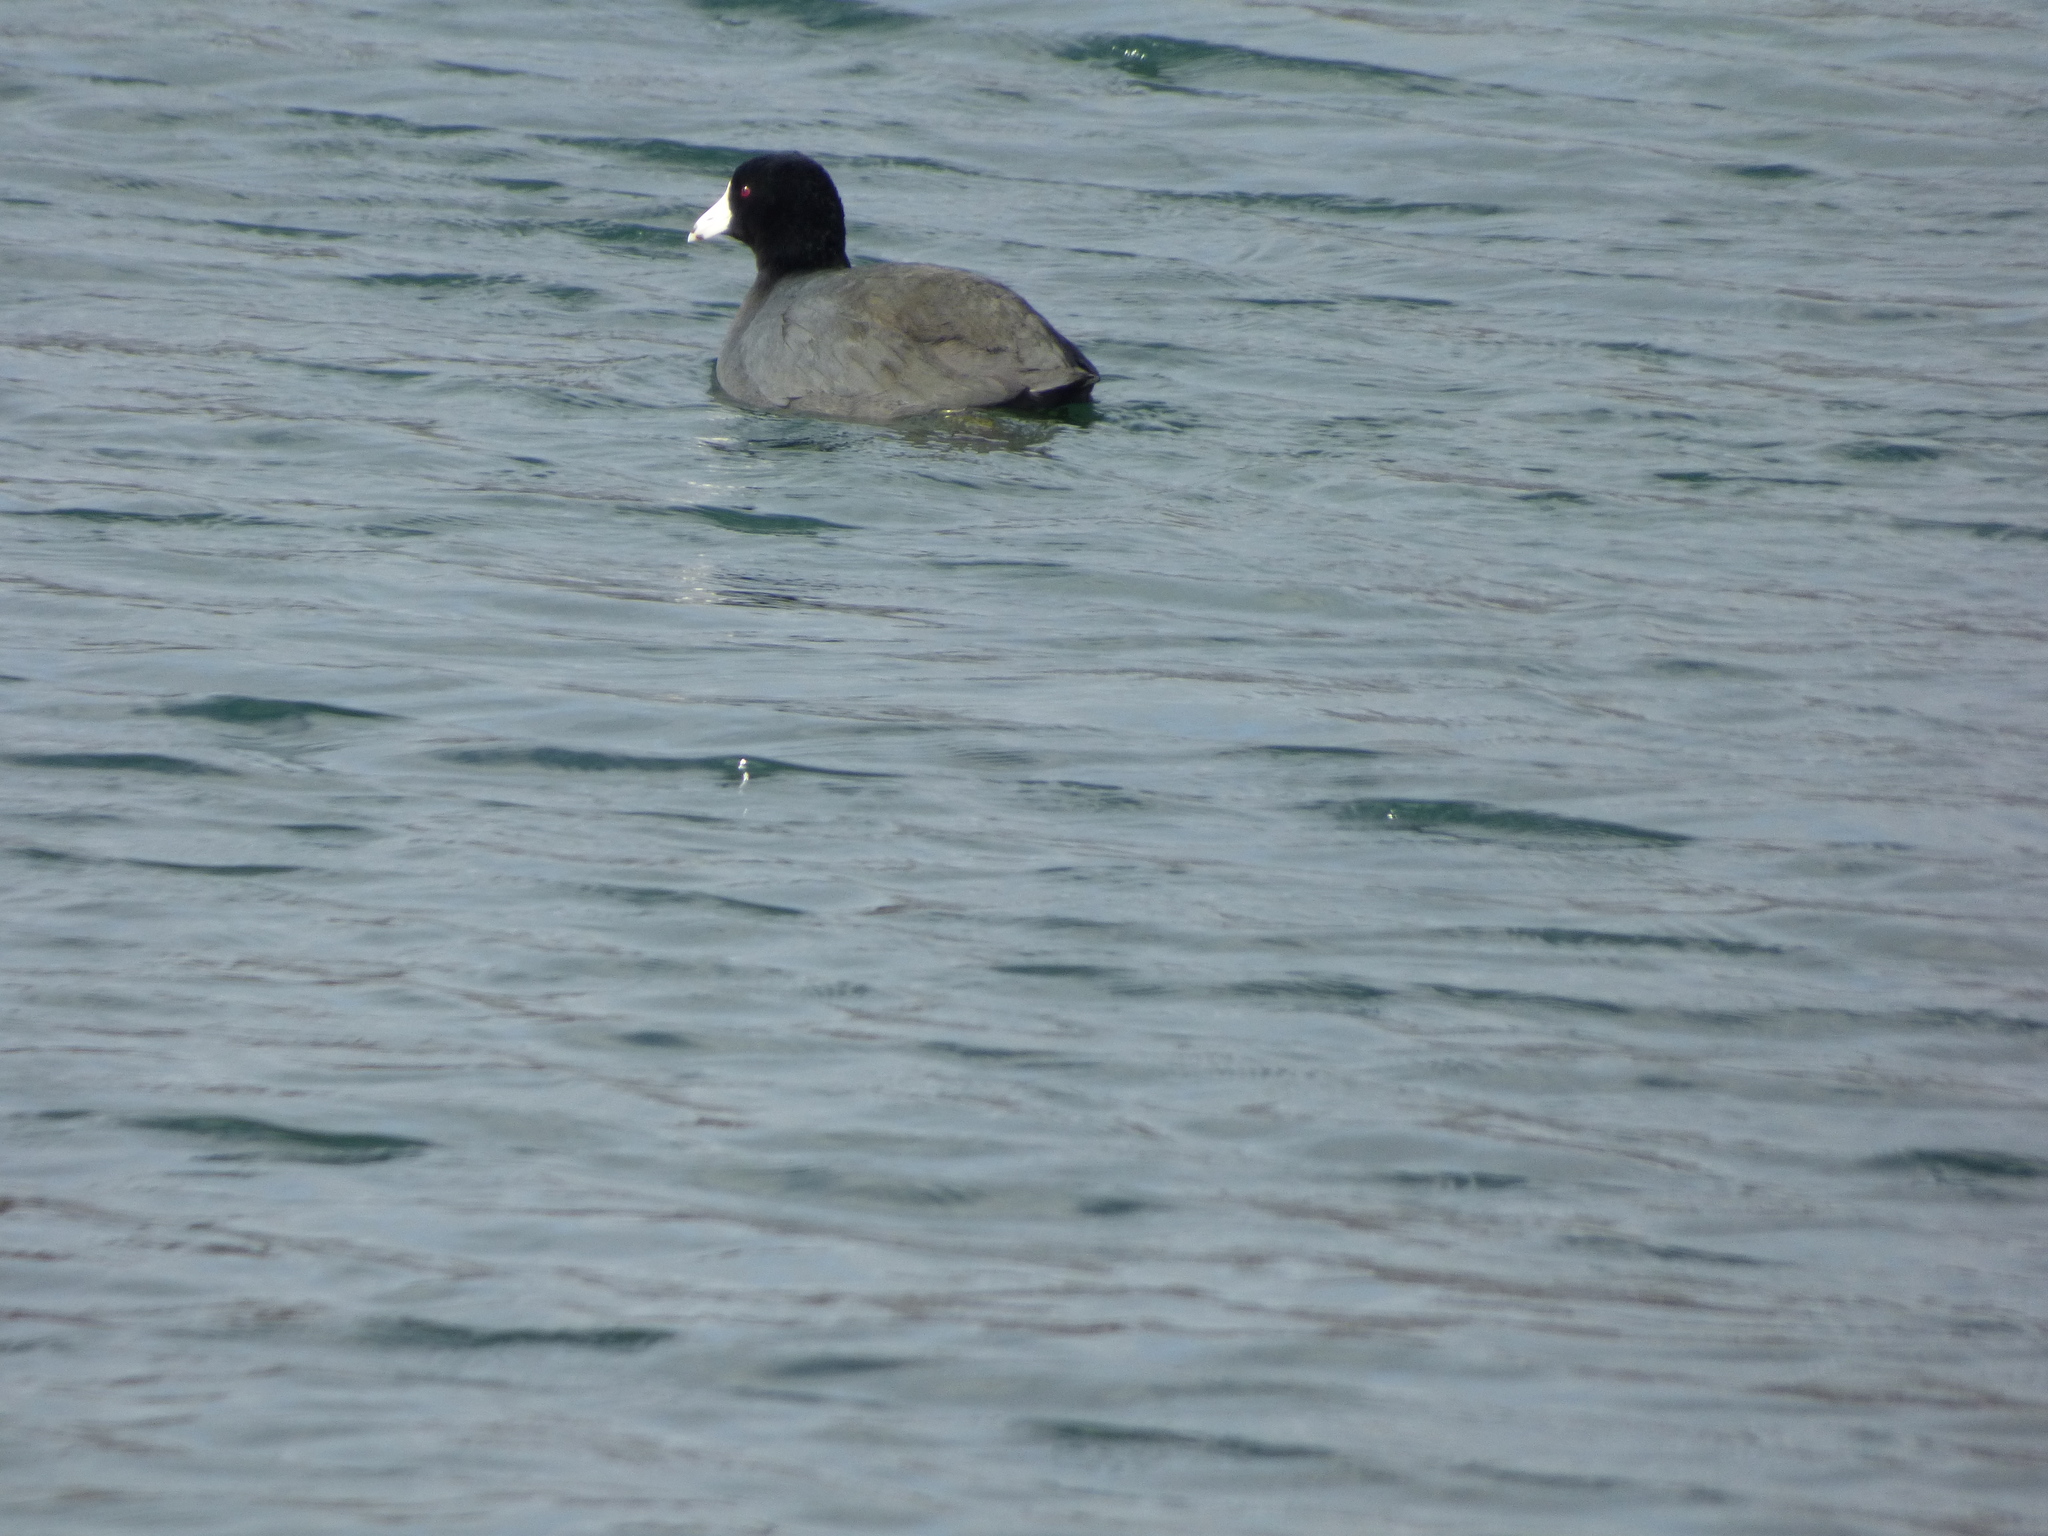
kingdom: Animalia
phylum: Chordata
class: Aves
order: Gruiformes
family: Rallidae
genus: Fulica
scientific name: Fulica americana
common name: American coot
